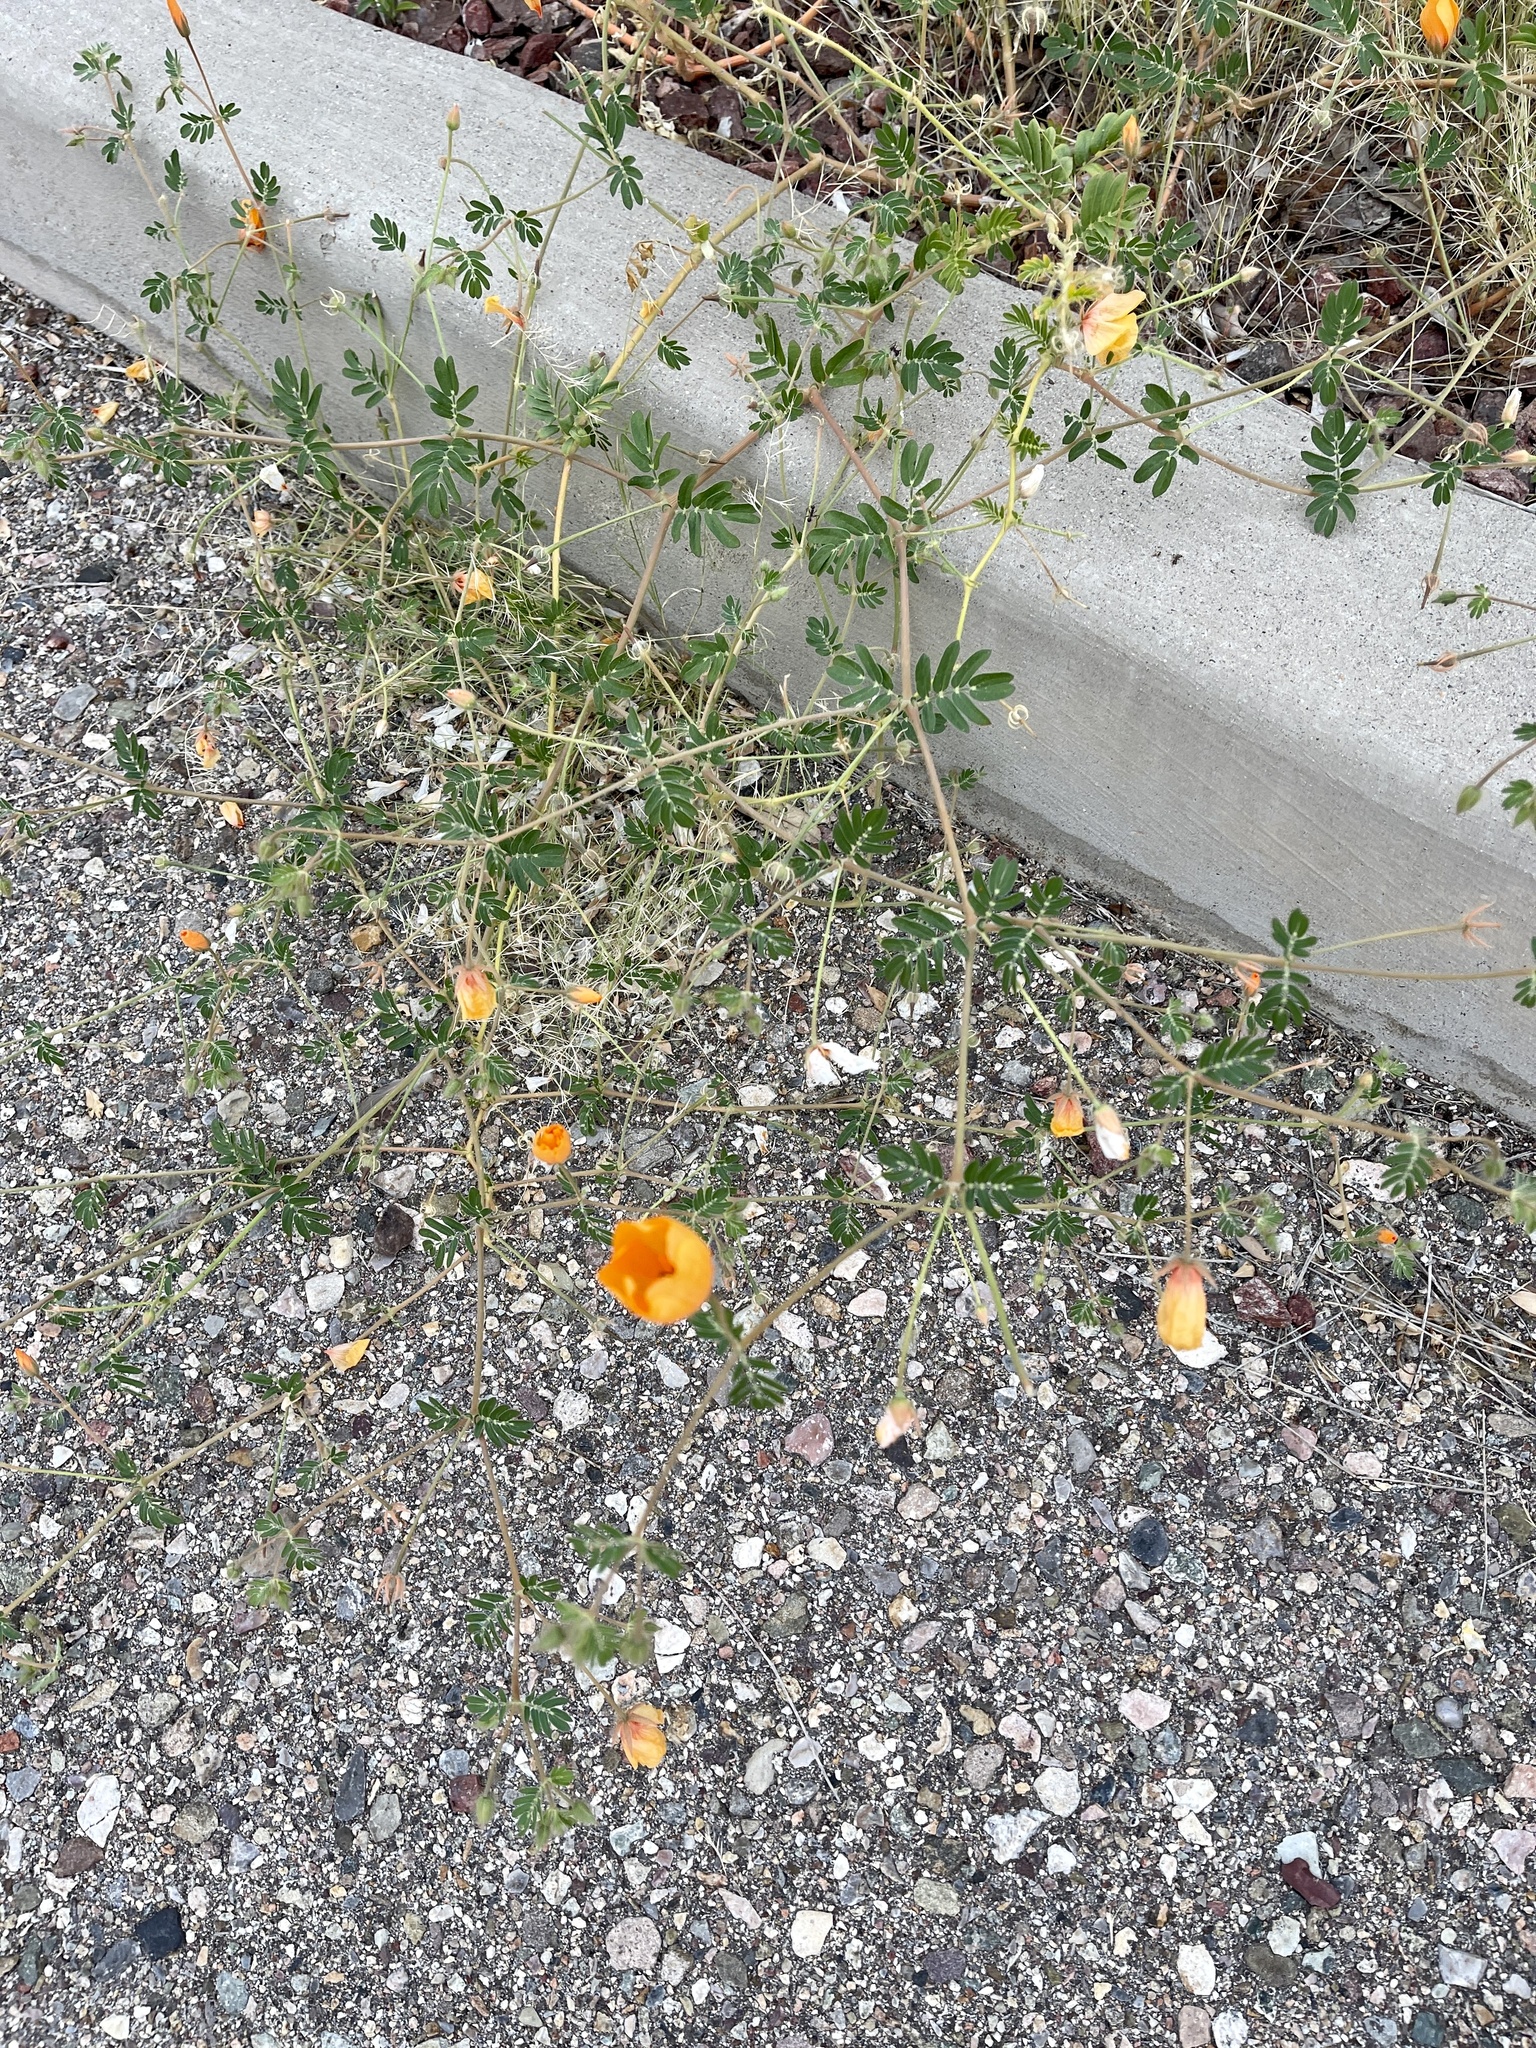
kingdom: Plantae
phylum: Tracheophyta
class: Magnoliopsida
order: Zygophyllales
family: Zygophyllaceae
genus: Kallstroemia
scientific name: Kallstroemia parviflora
